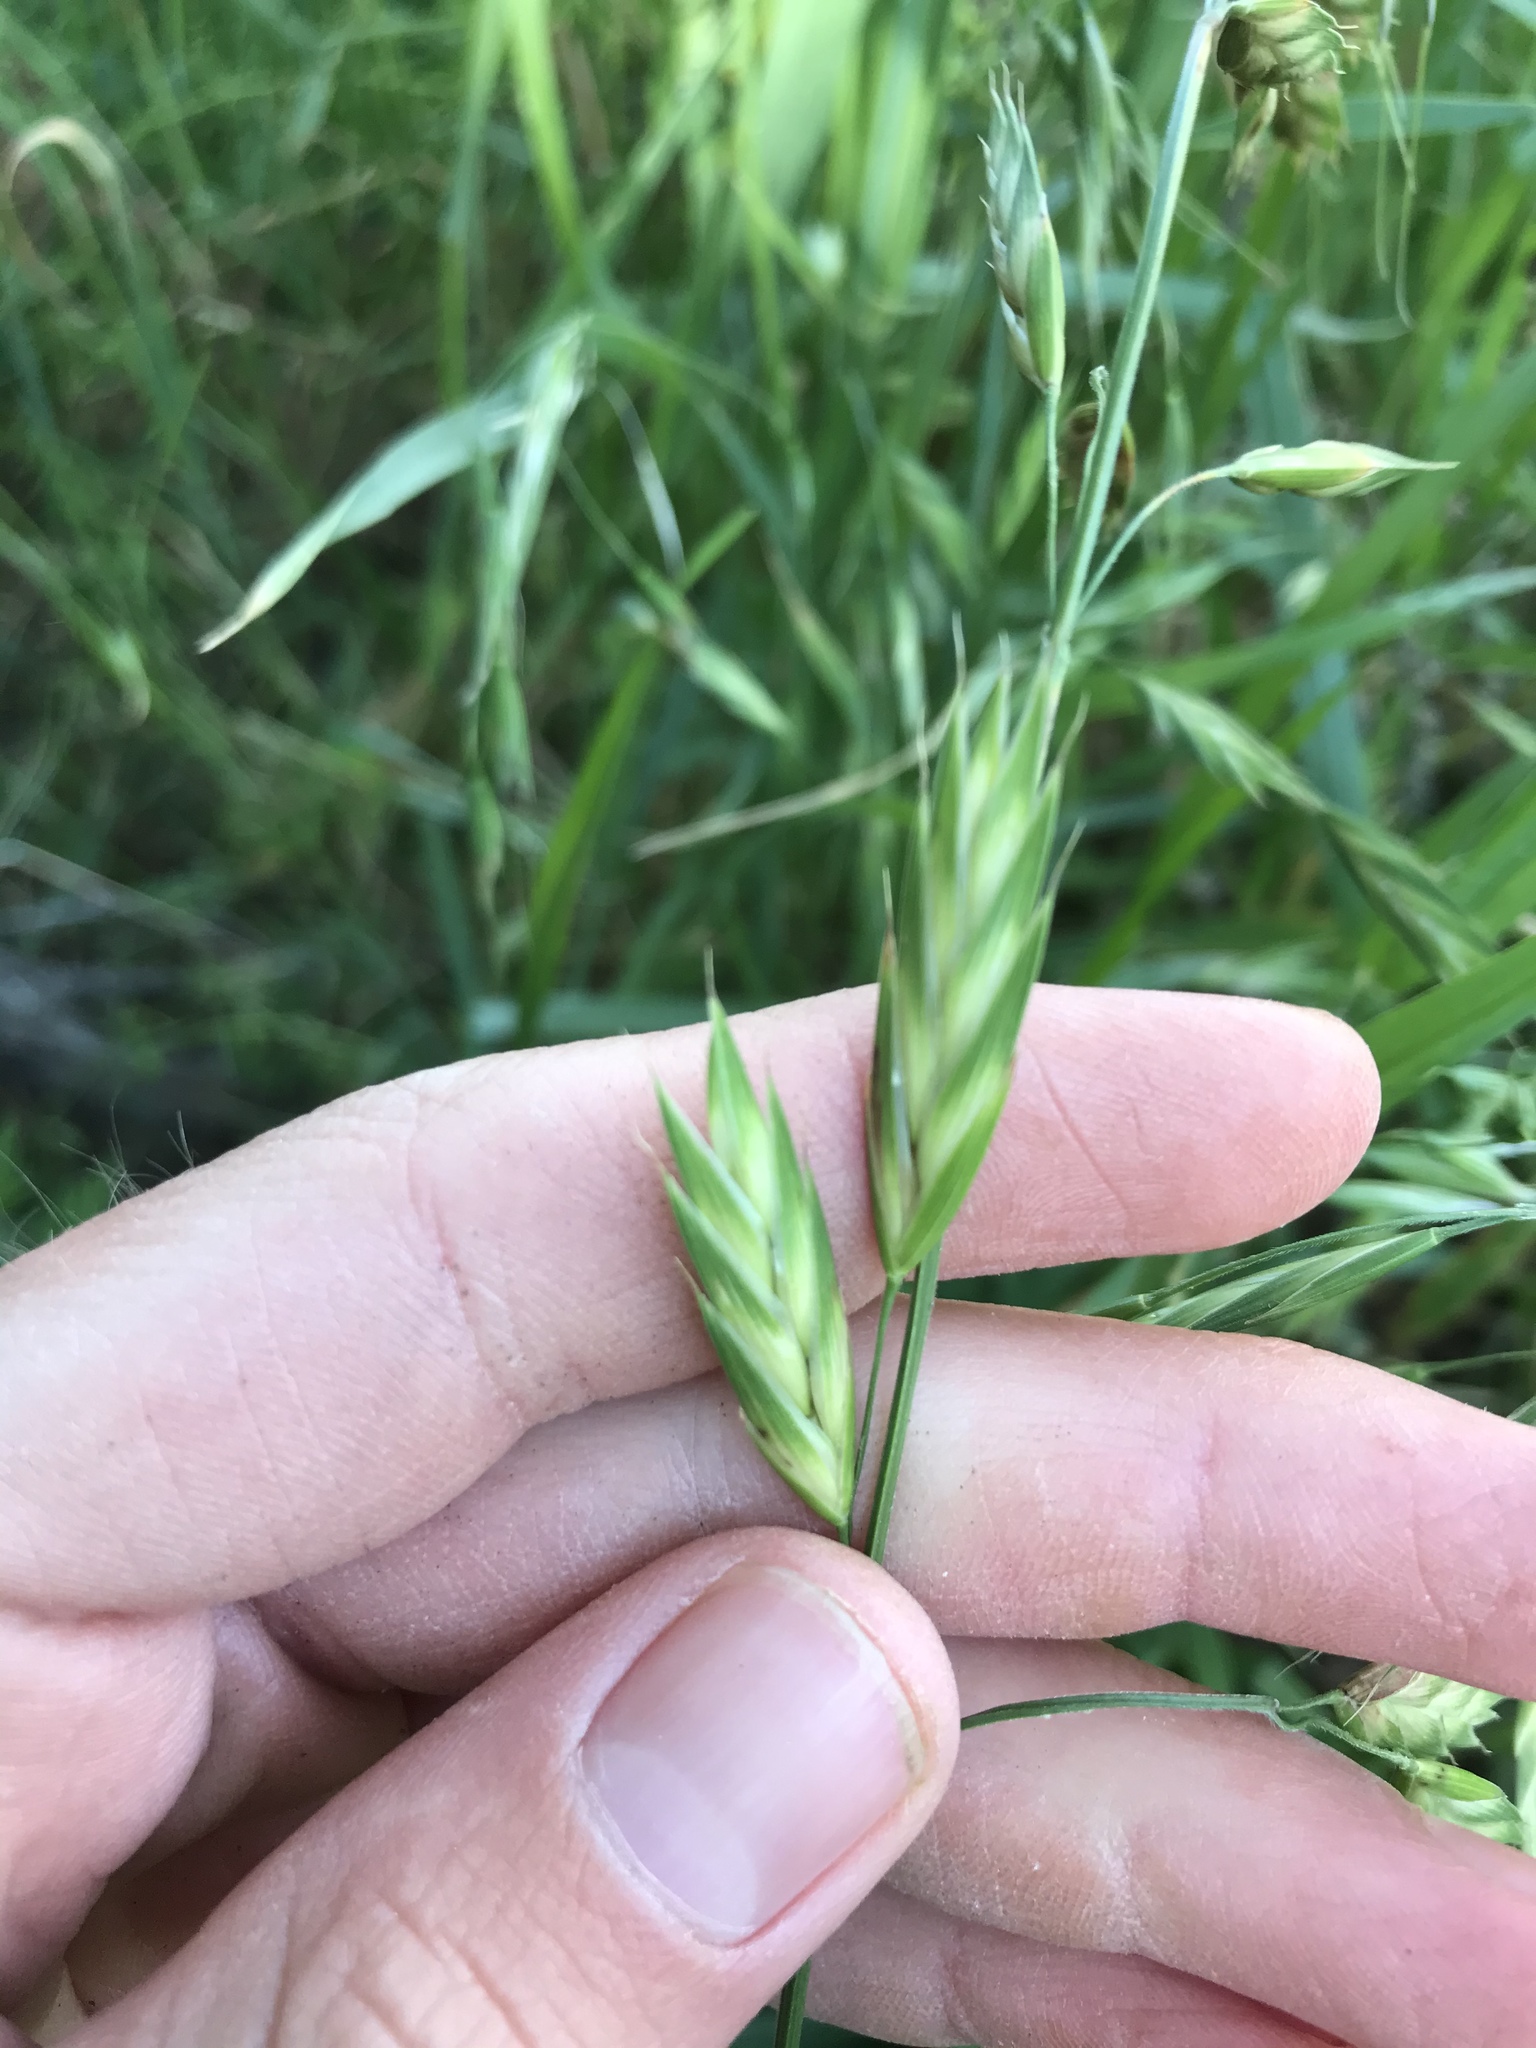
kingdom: Plantae
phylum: Tracheophyta
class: Liliopsida
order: Poales
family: Poaceae
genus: Bromus
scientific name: Bromus catharticus
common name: Rescuegrass
